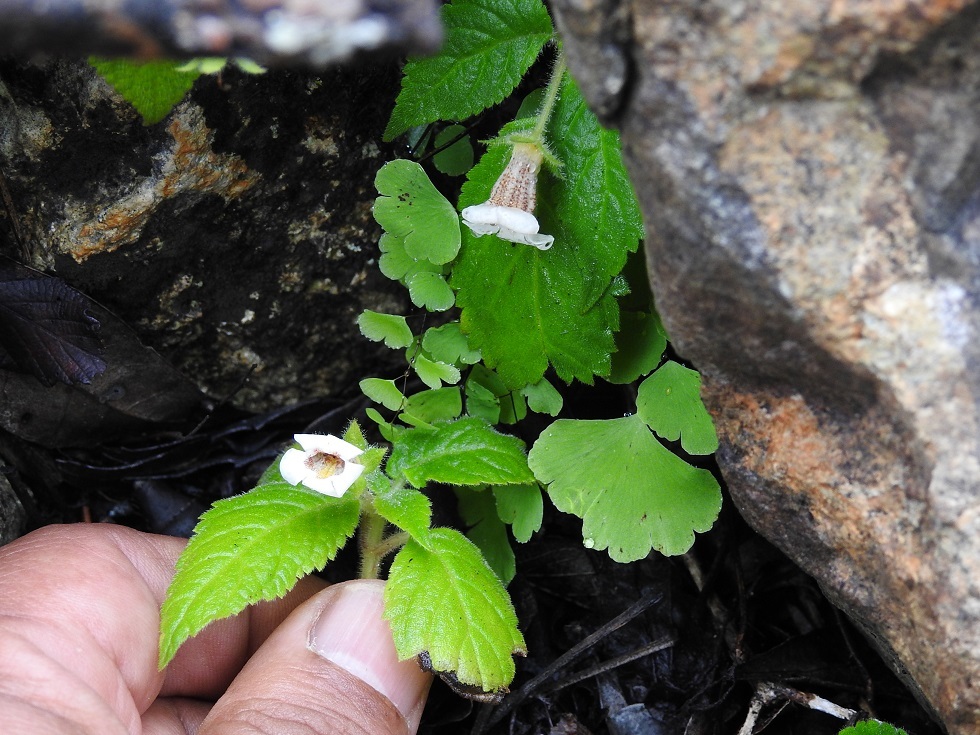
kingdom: Plantae
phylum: Tracheophyta
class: Magnoliopsida
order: Lamiales
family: Gesneriaceae
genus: Achimenes
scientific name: Achimenes misera
